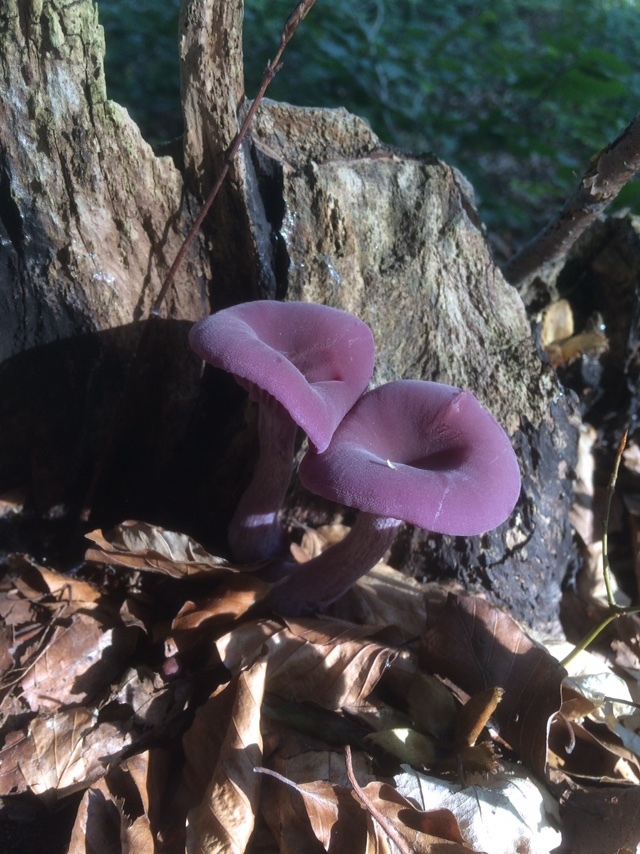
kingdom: Fungi
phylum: Basidiomycota
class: Agaricomycetes
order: Agaricales
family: Hydnangiaceae
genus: Laccaria
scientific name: Laccaria amethystina
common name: Amethyst deceiver
